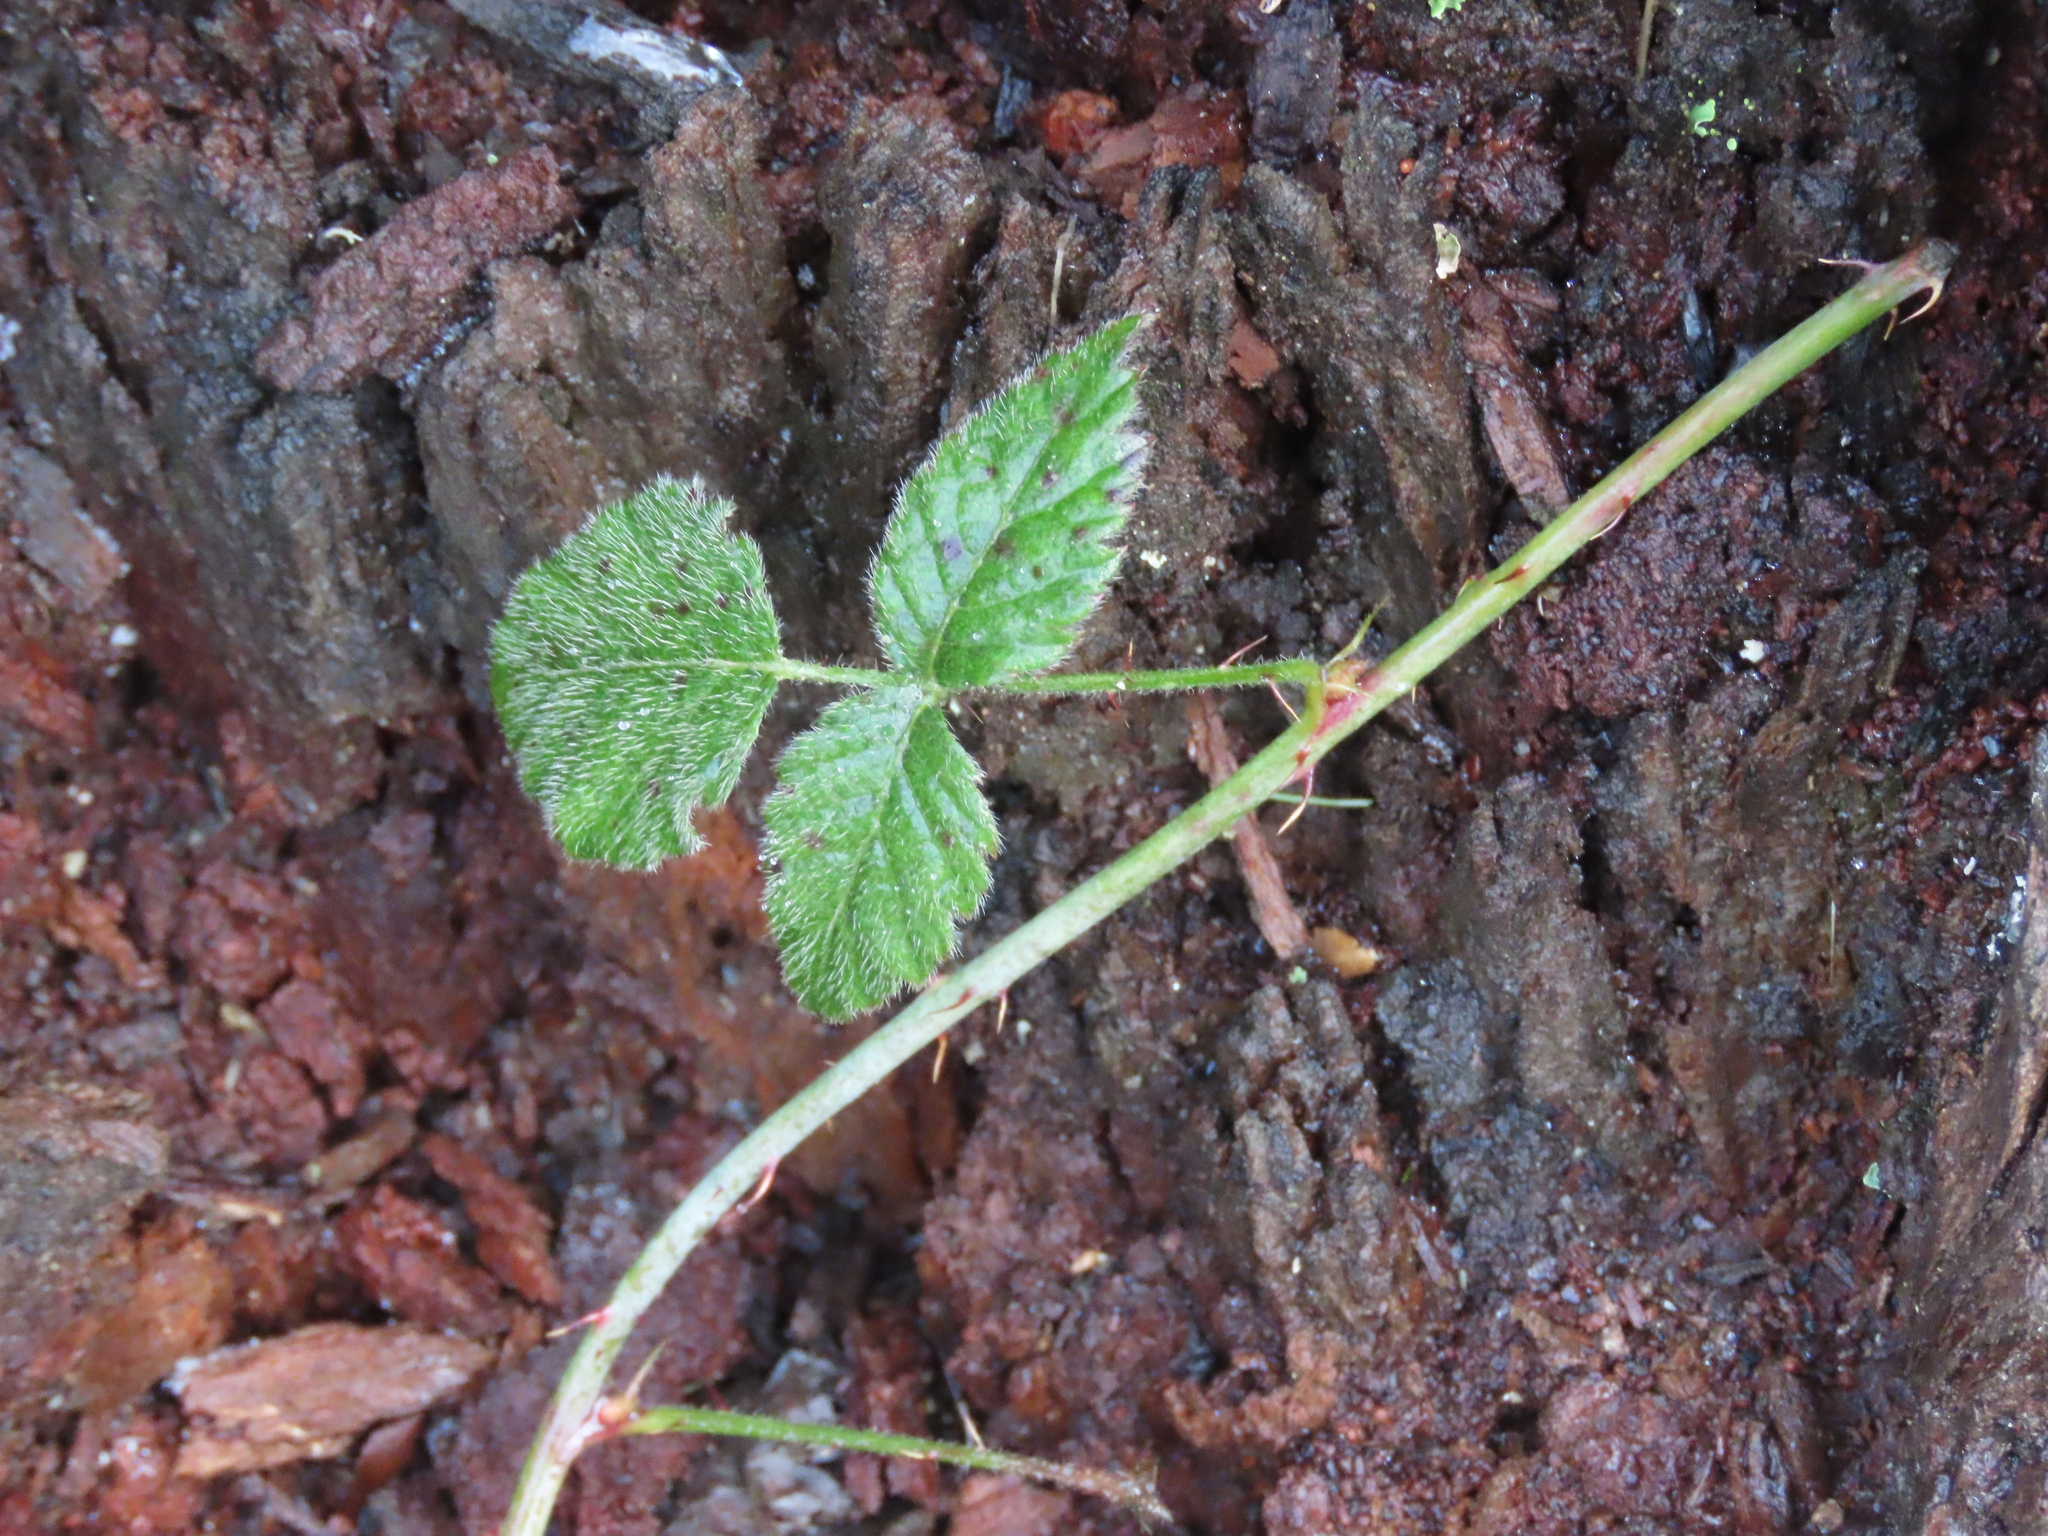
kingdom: Plantae
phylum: Tracheophyta
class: Magnoliopsida
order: Rosales
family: Rosaceae
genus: Rubus
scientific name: Rubus ursinus
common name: Pacific blackberry
